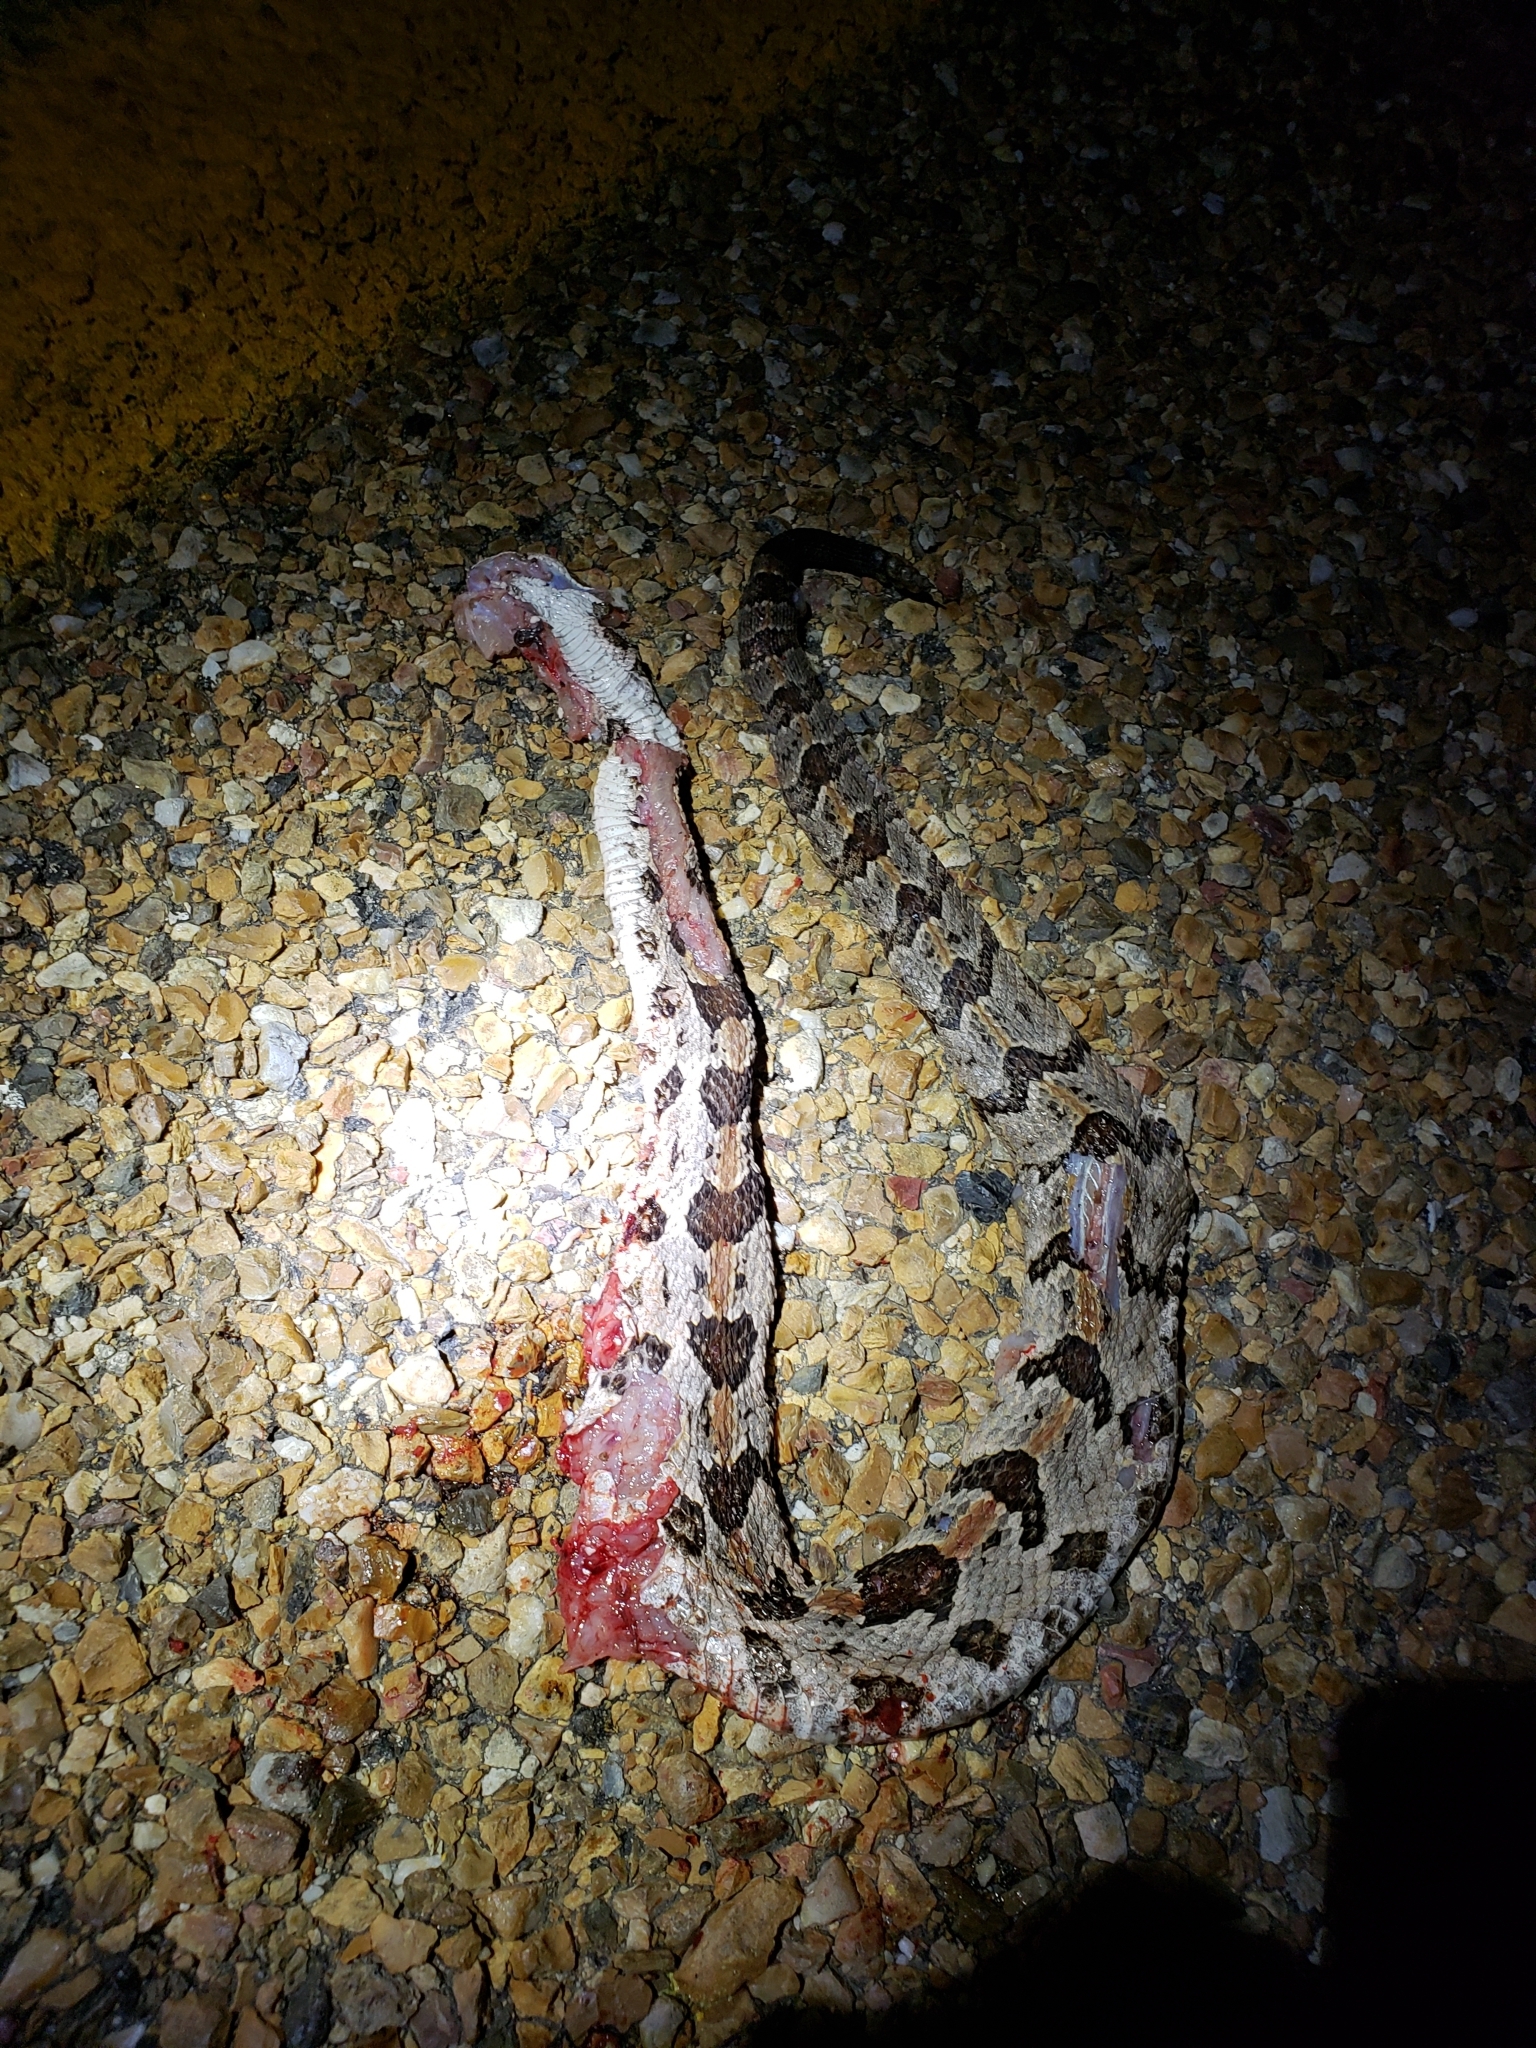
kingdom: Animalia
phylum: Chordata
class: Squamata
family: Viperidae
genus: Crotalus
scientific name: Crotalus horridus
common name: Timber rattlesnake
